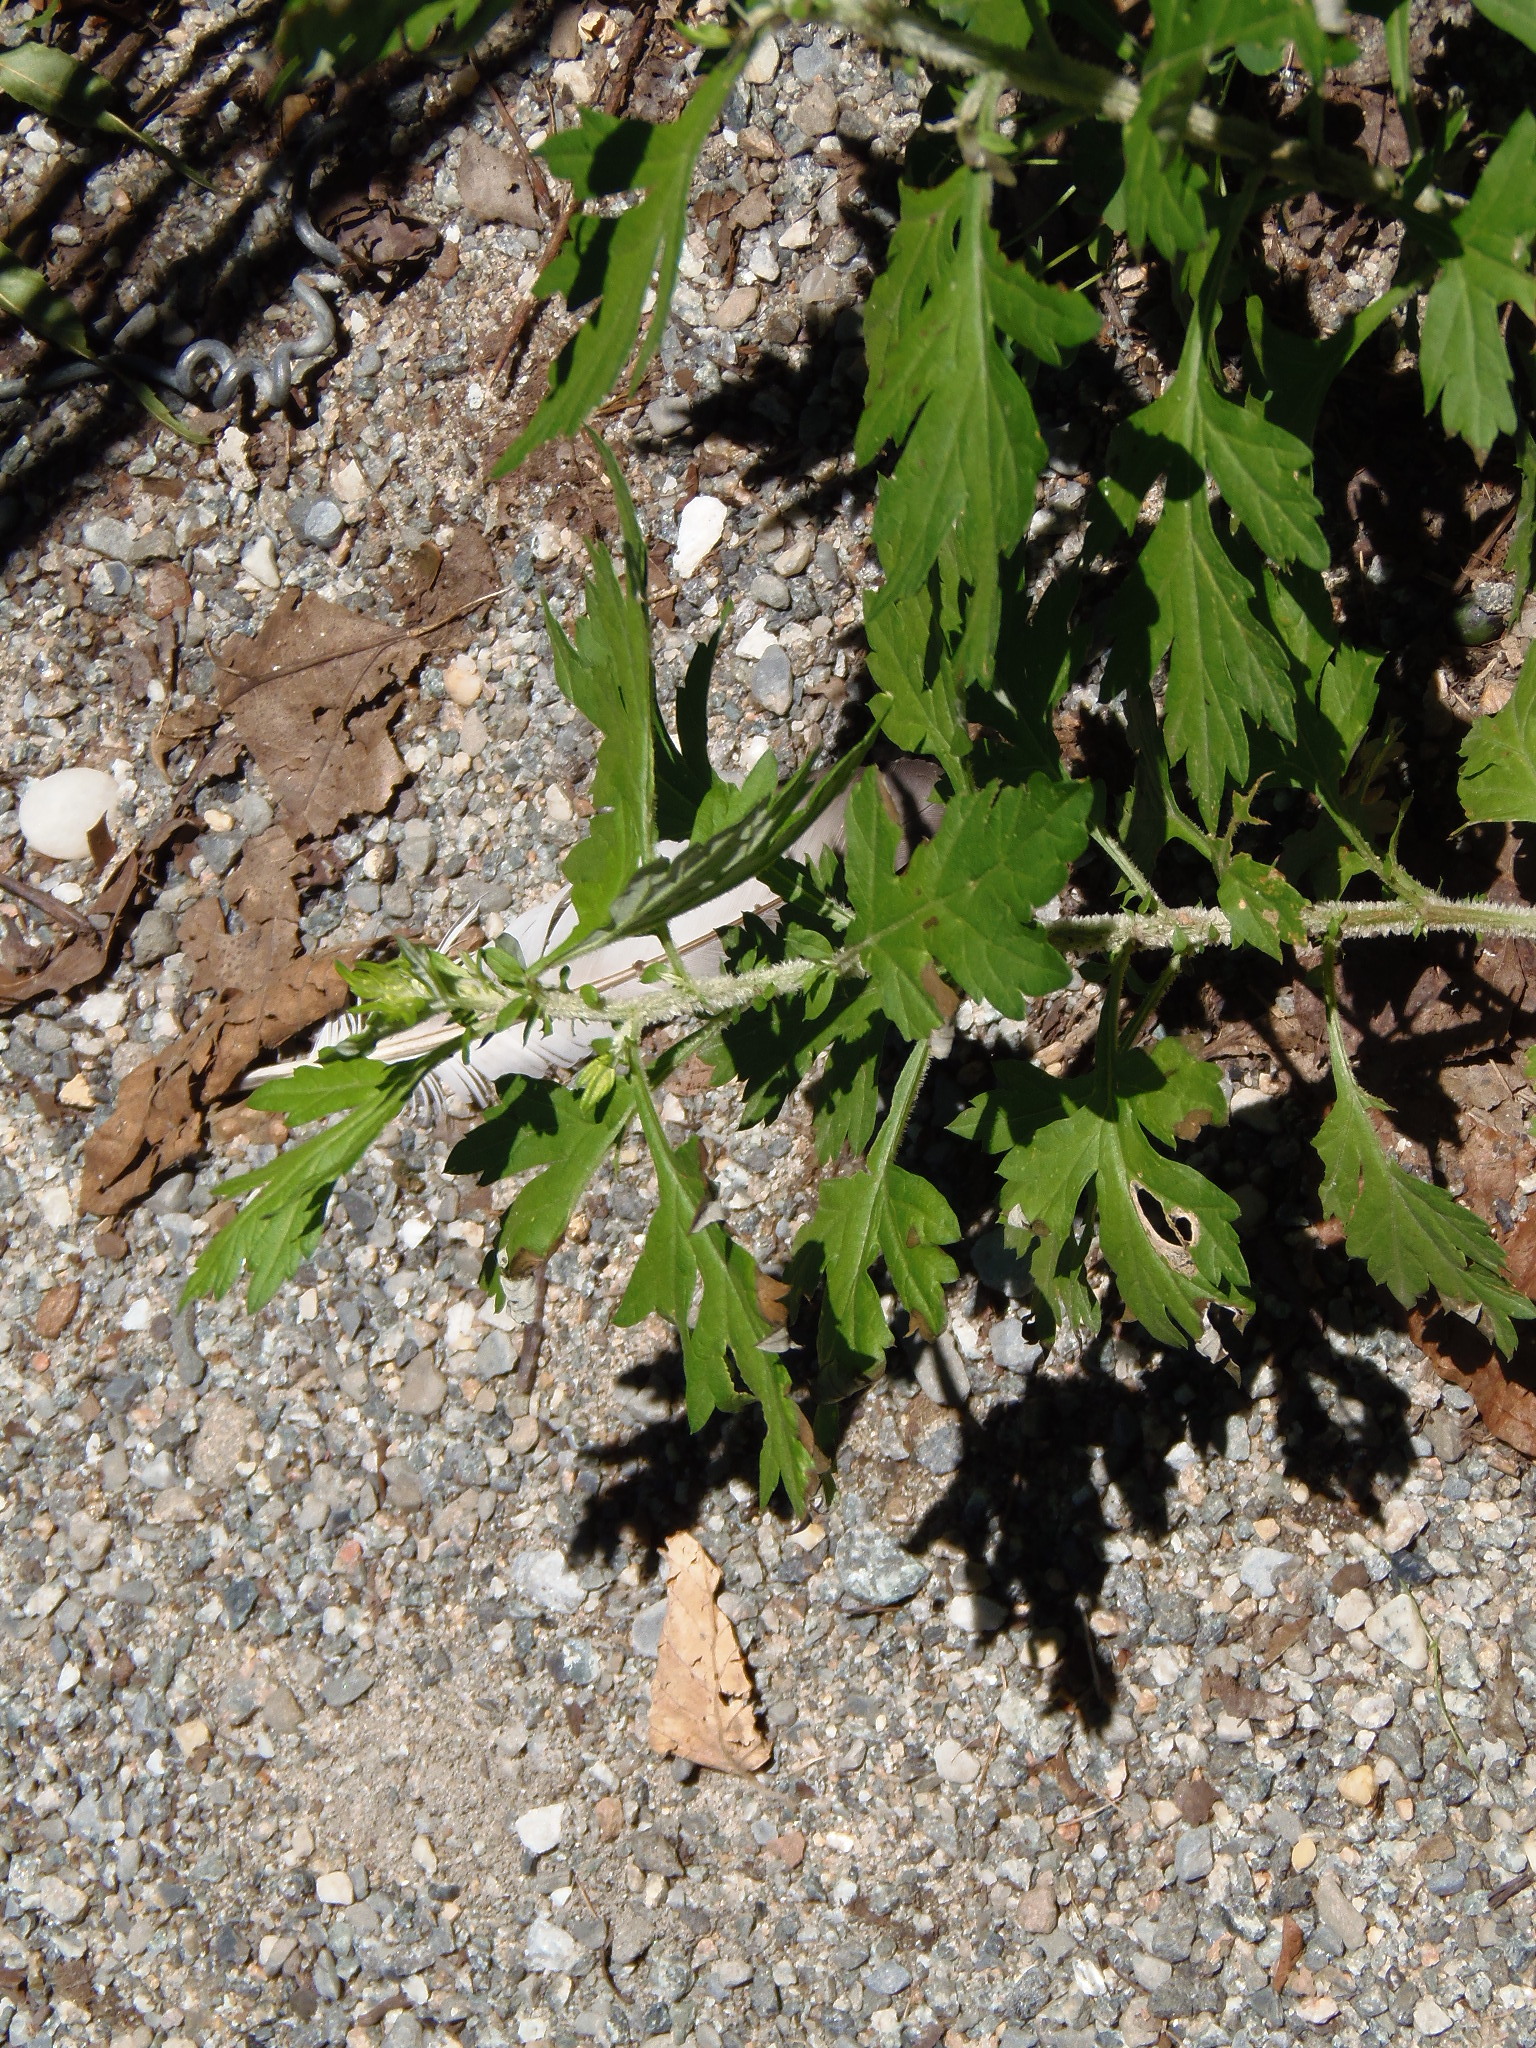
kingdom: Plantae
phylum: Tracheophyta
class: Magnoliopsida
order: Asterales
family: Asteraceae
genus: Artemisia
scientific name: Artemisia vulgaris
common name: Mugwort
